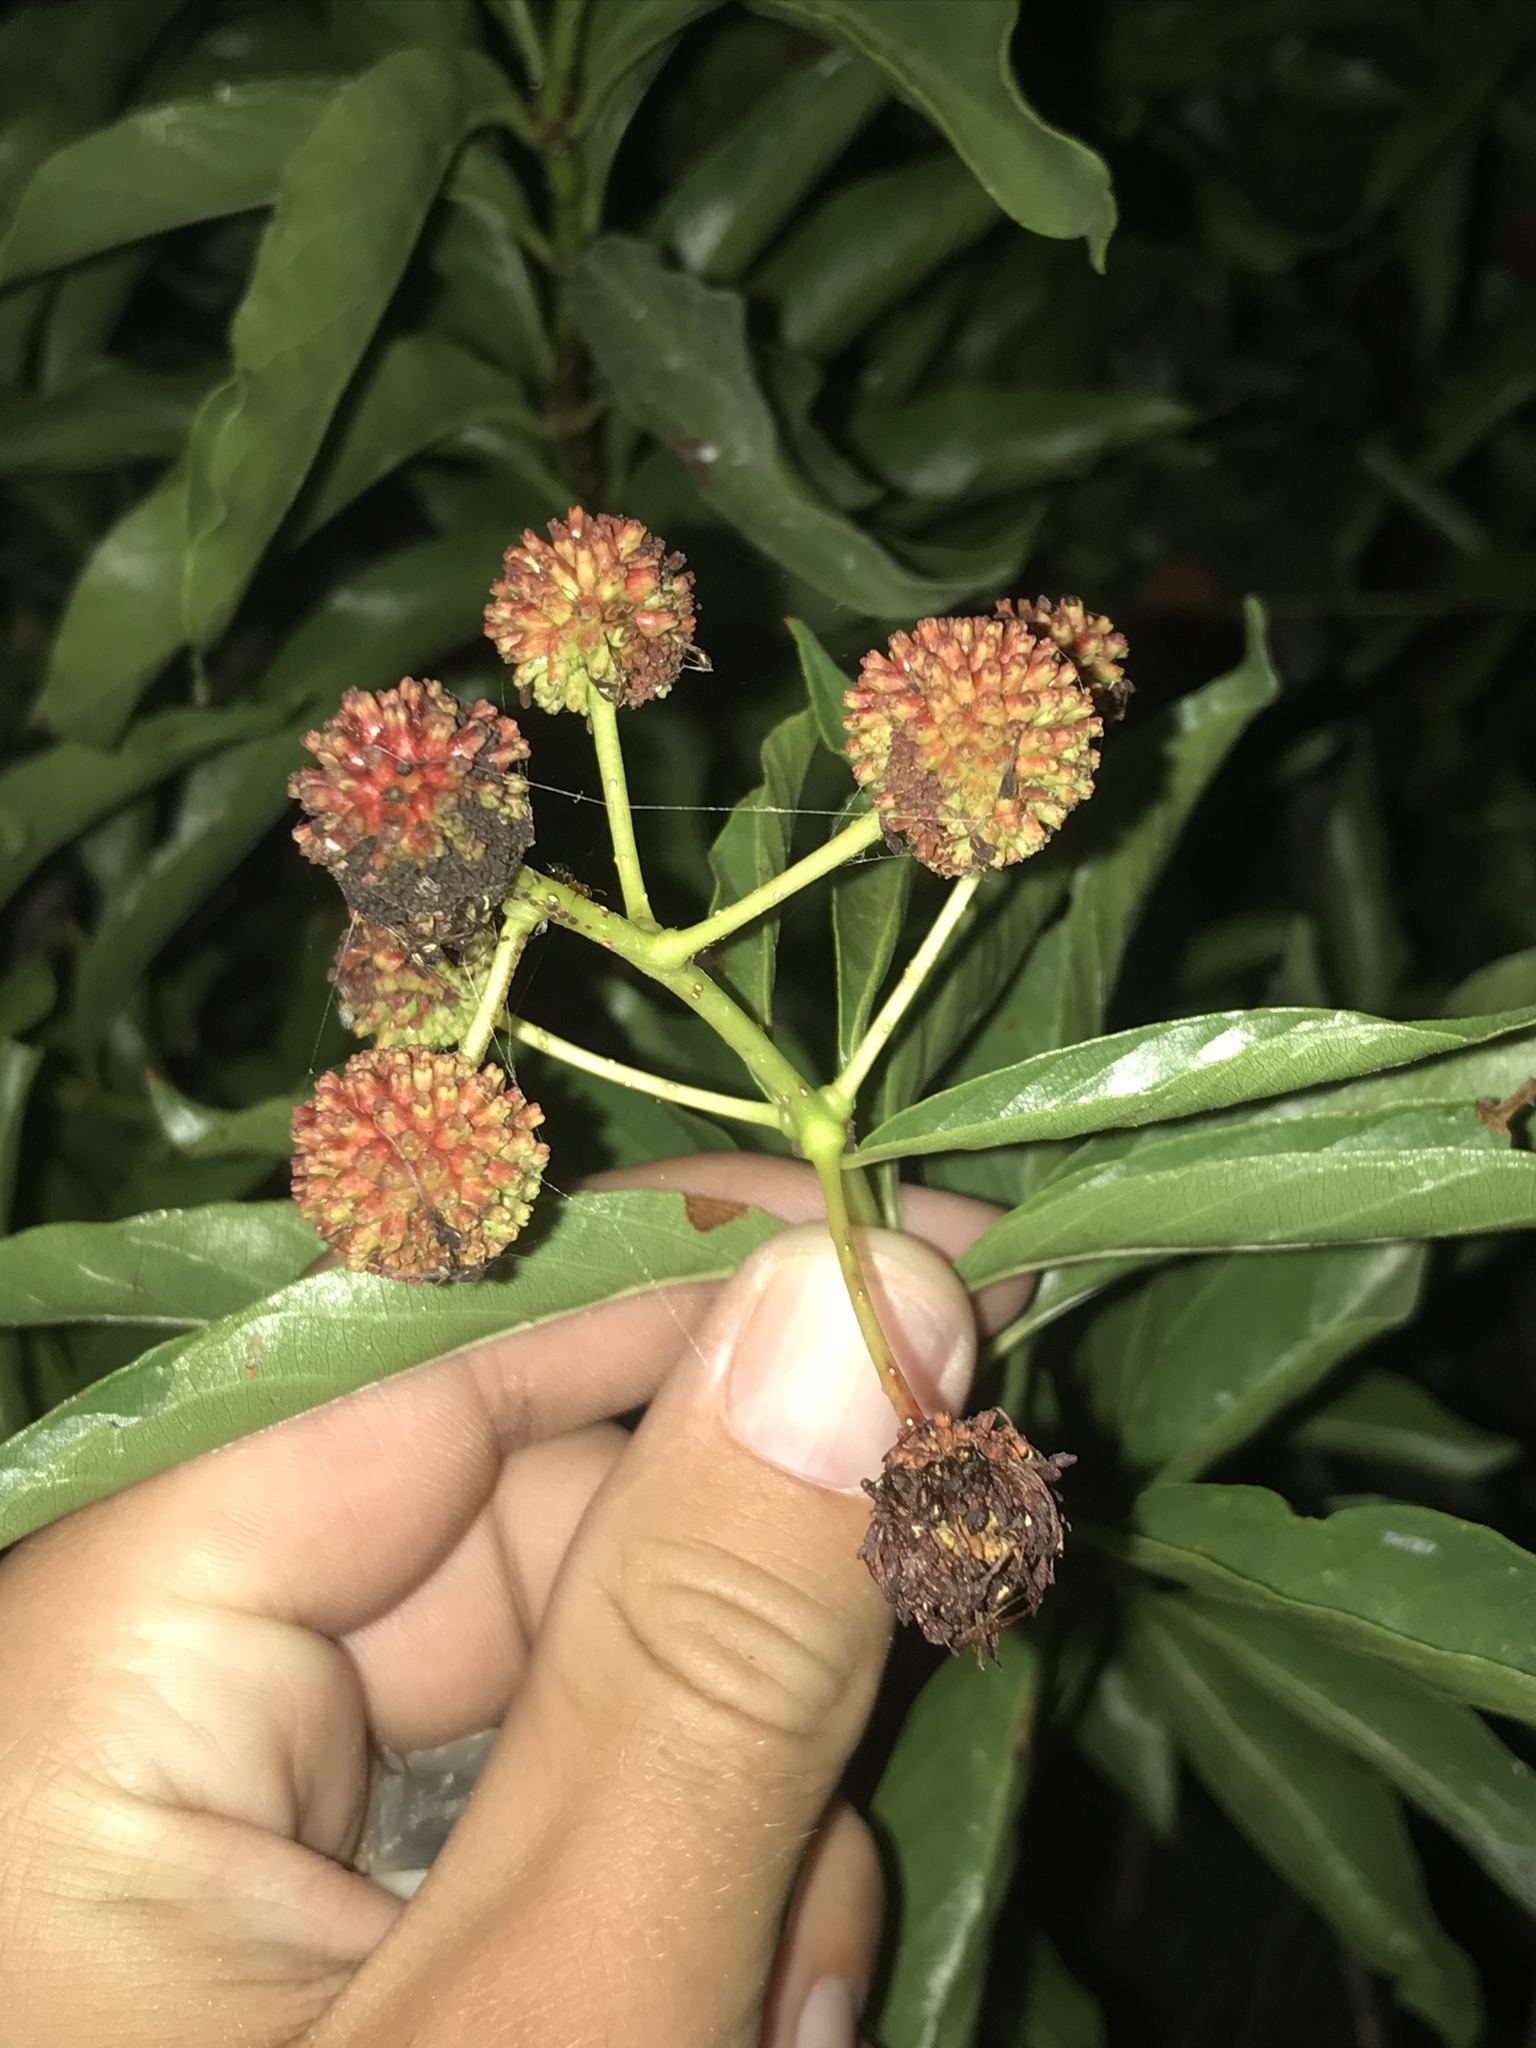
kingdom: Plantae
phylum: Tracheophyta
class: Magnoliopsida
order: Gentianales
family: Rubiaceae
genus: Cephalanthus
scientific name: Cephalanthus occidentalis
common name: Button-willow
